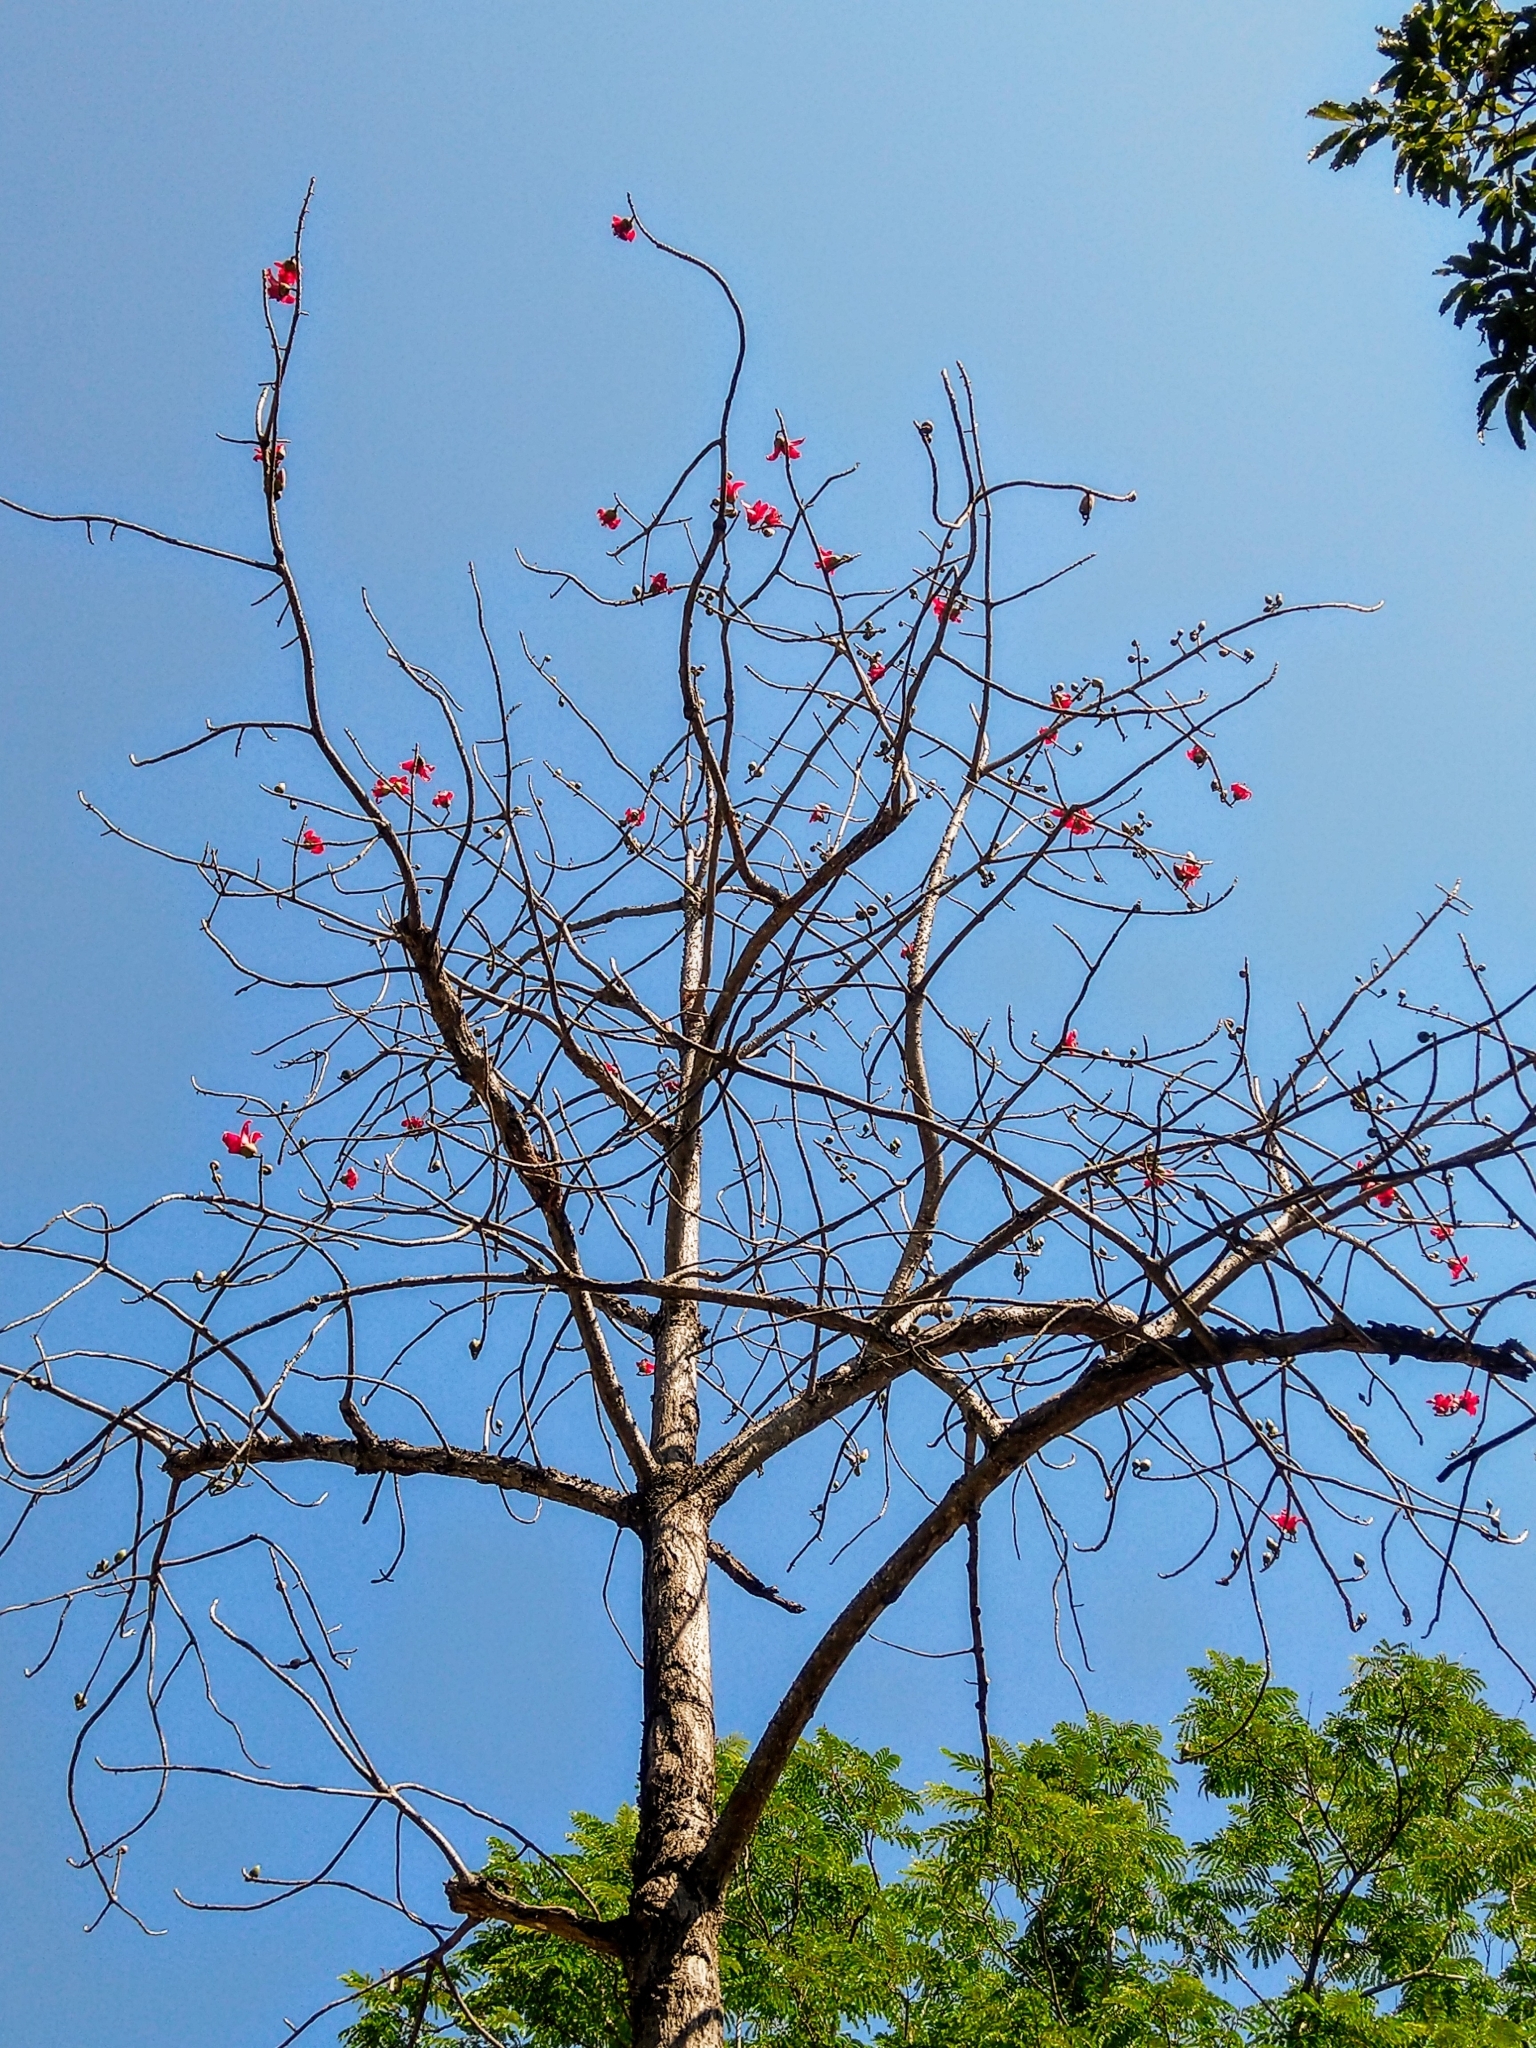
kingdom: Plantae
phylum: Tracheophyta
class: Magnoliopsida
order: Malvales
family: Malvaceae
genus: Bombax
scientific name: Bombax ceiba
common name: Northern-cottonwood
